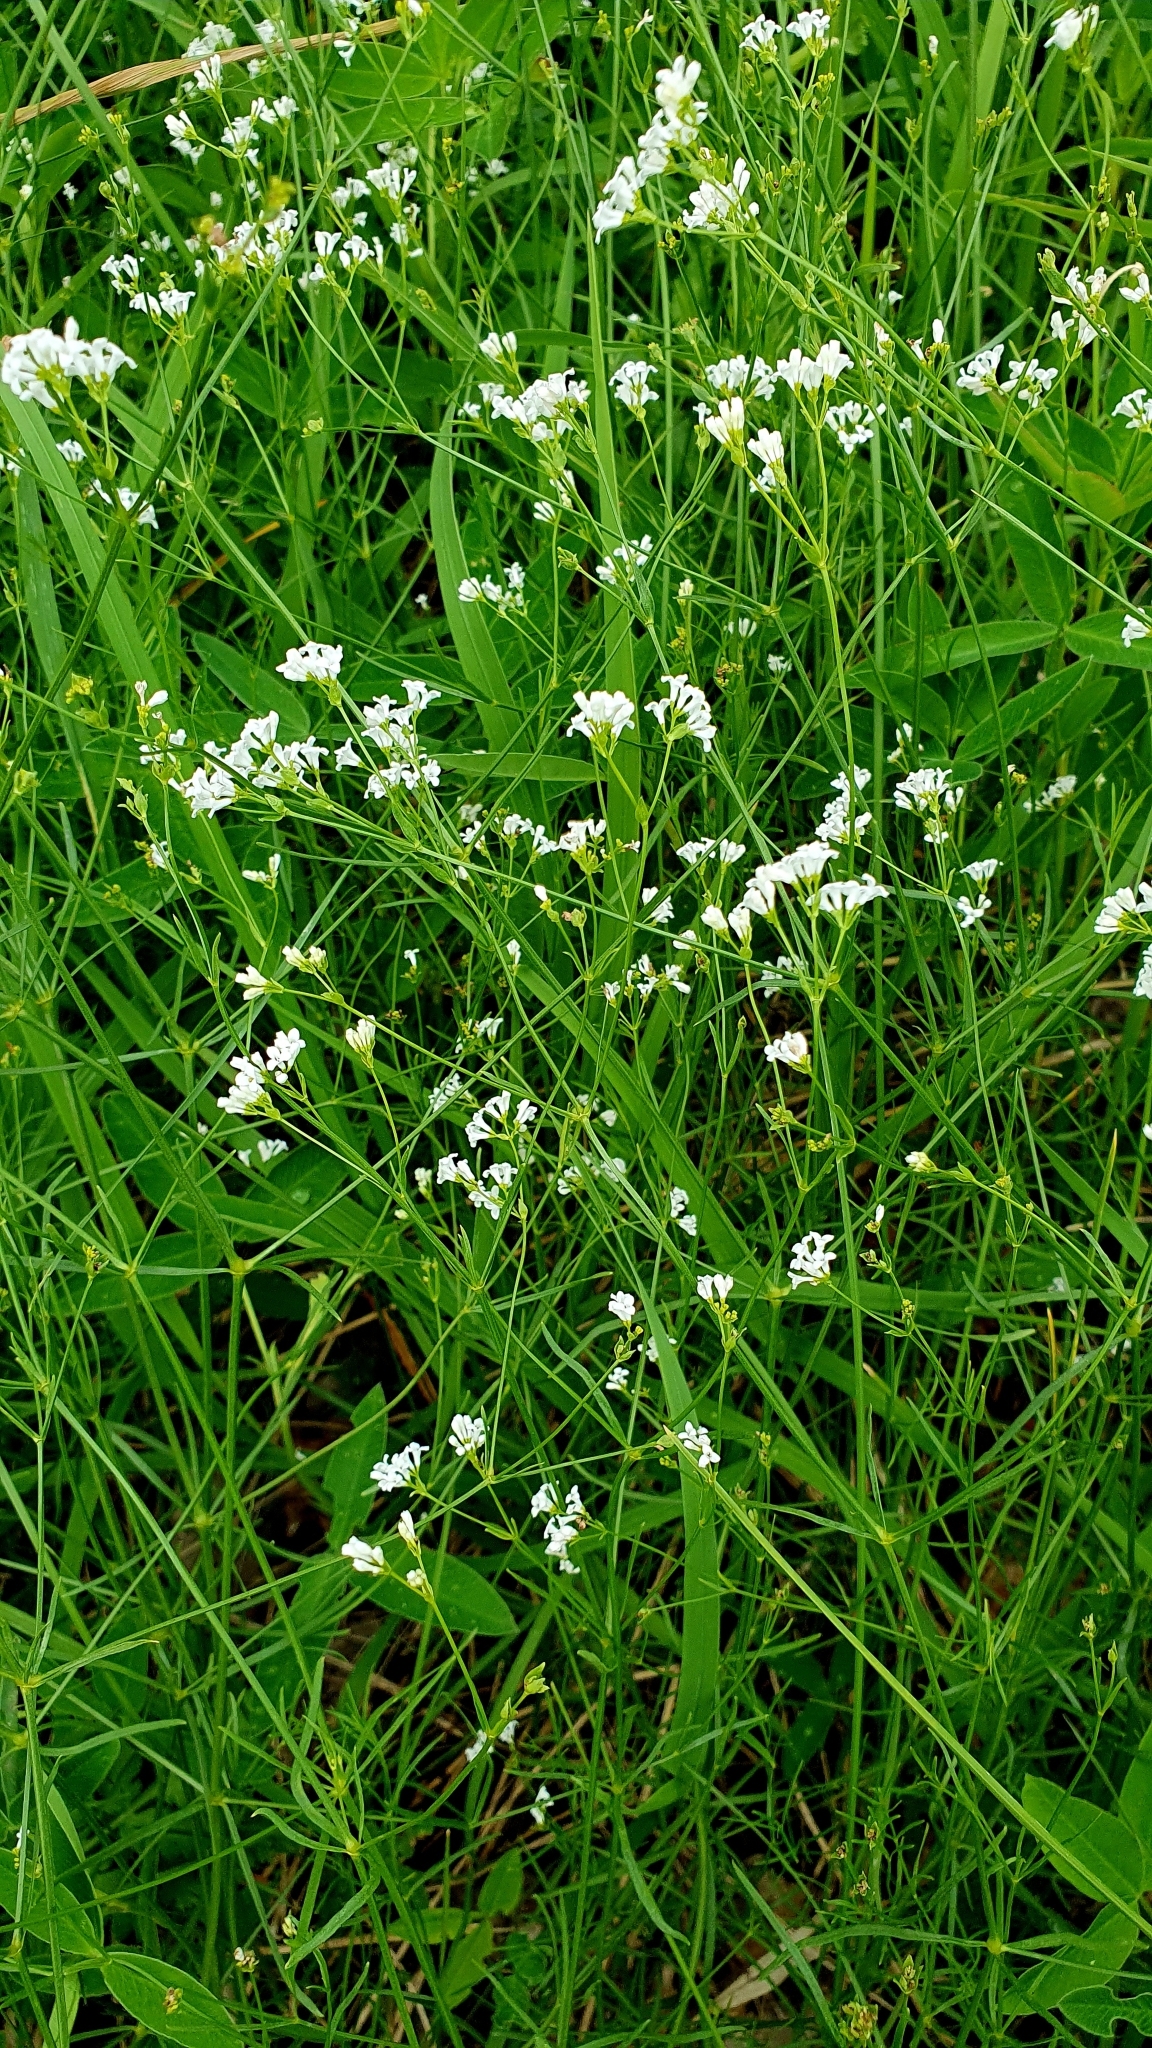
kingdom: Plantae
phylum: Tracheophyta
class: Magnoliopsida
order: Gentianales
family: Rubiaceae
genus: Asperula
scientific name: Asperula tinctoria
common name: Dyer's woodruff
